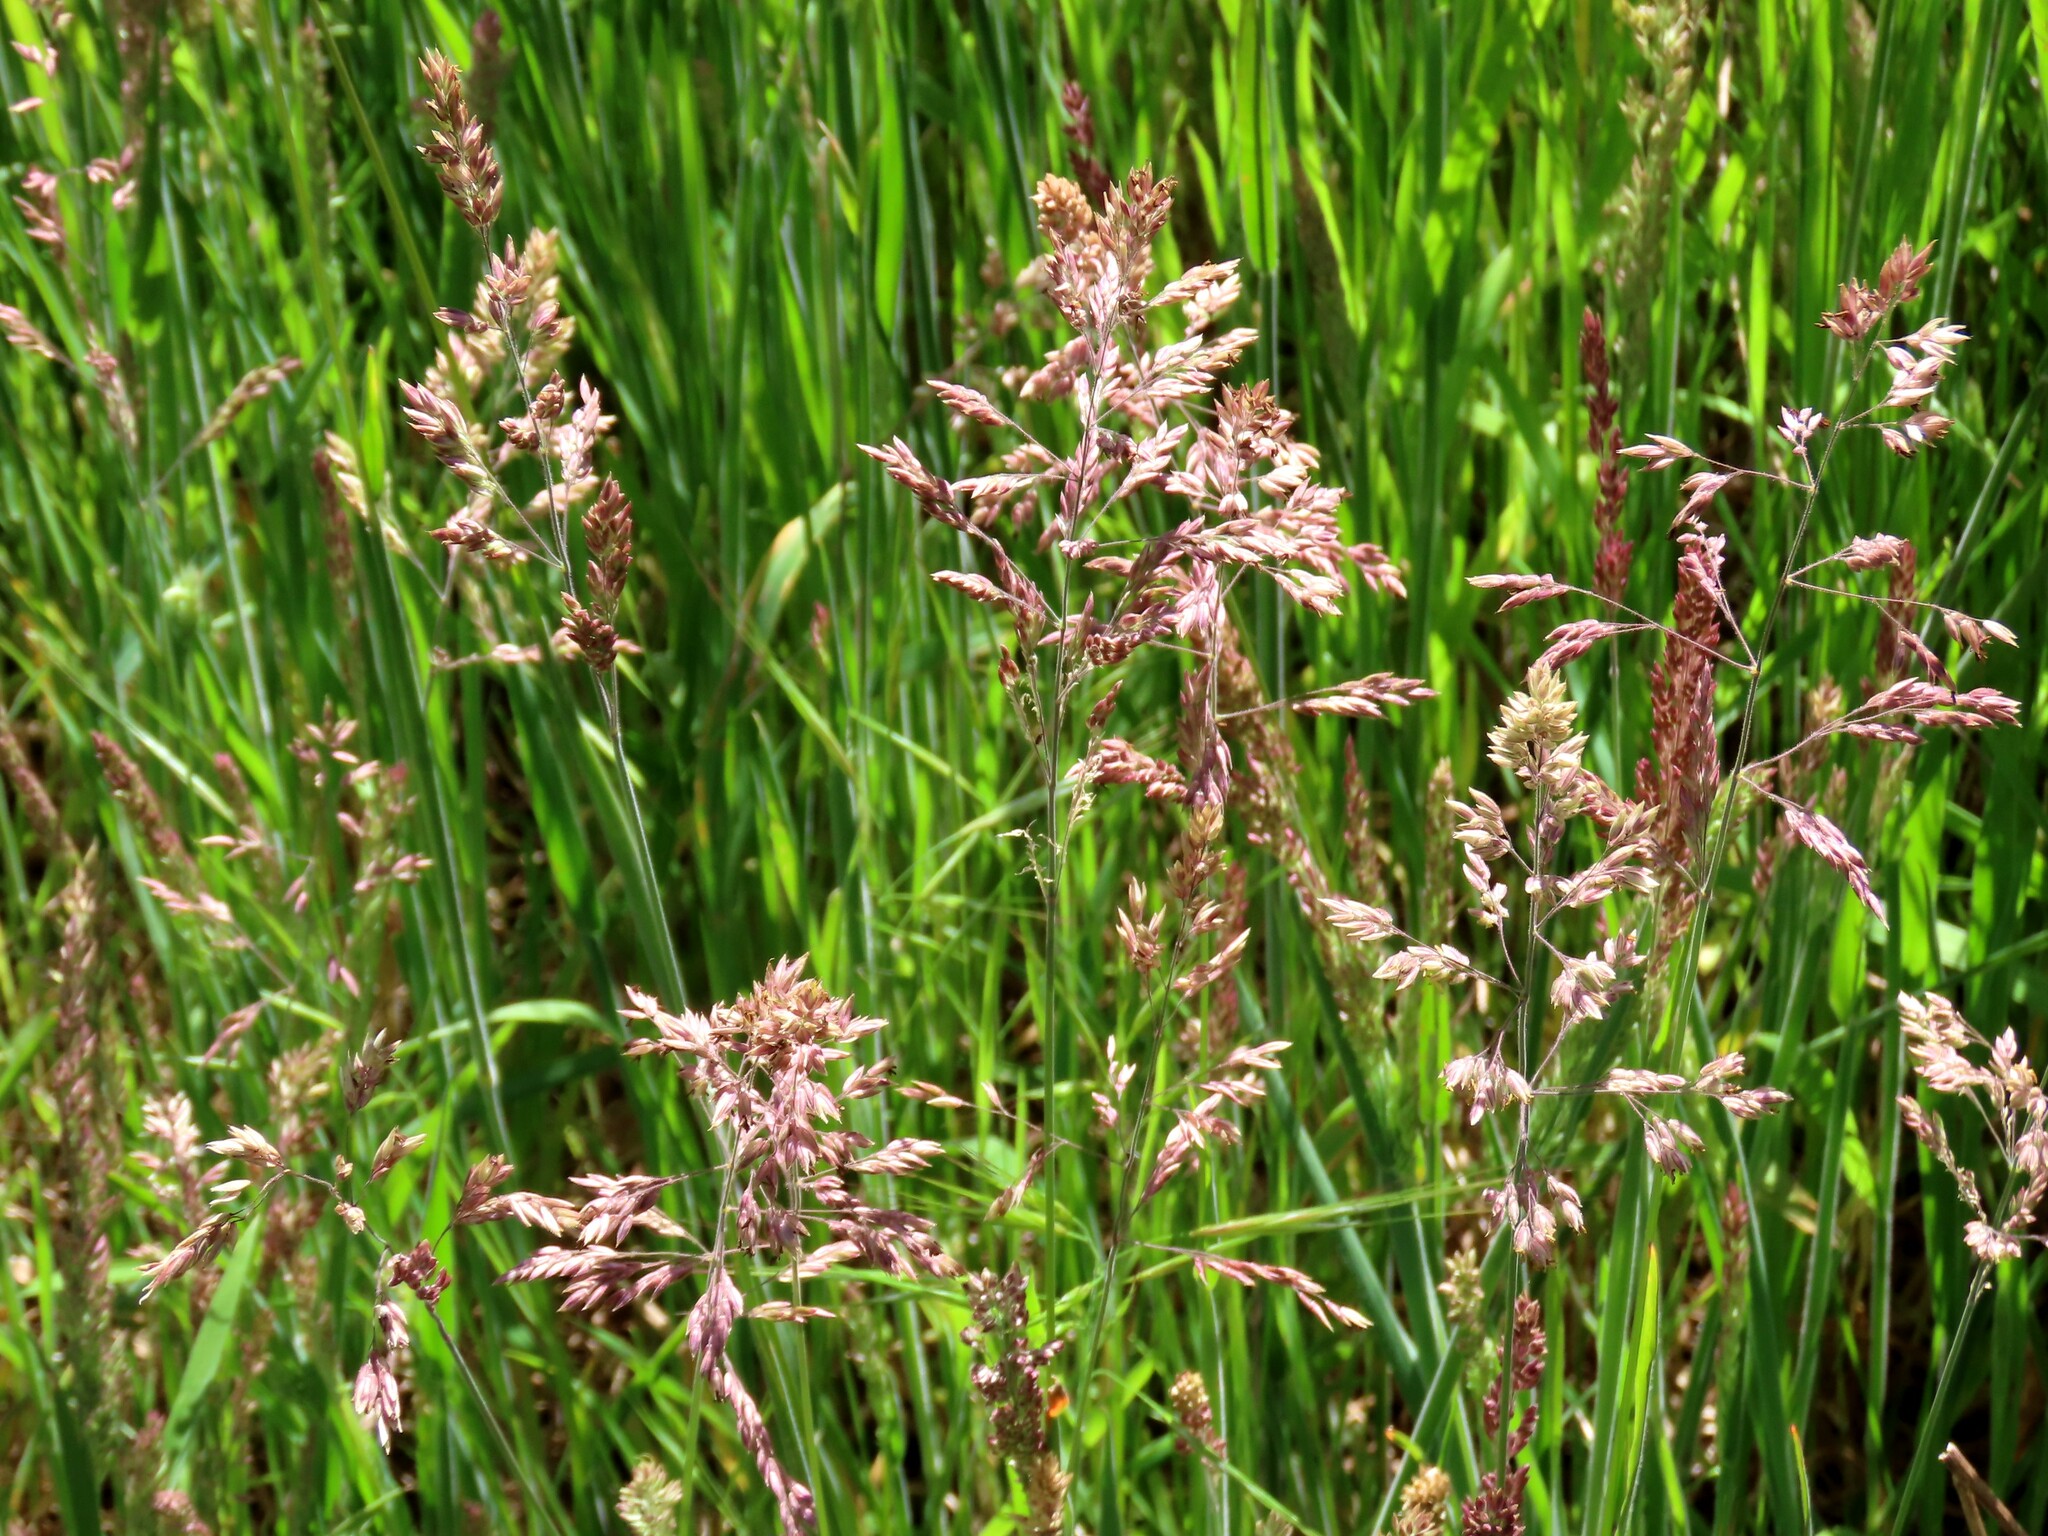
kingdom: Plantae
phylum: Tracheophyta
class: Liliopsida
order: Poales
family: Poaceae
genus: Holcus
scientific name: Holcus lanatus
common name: Yorkshire-fog
